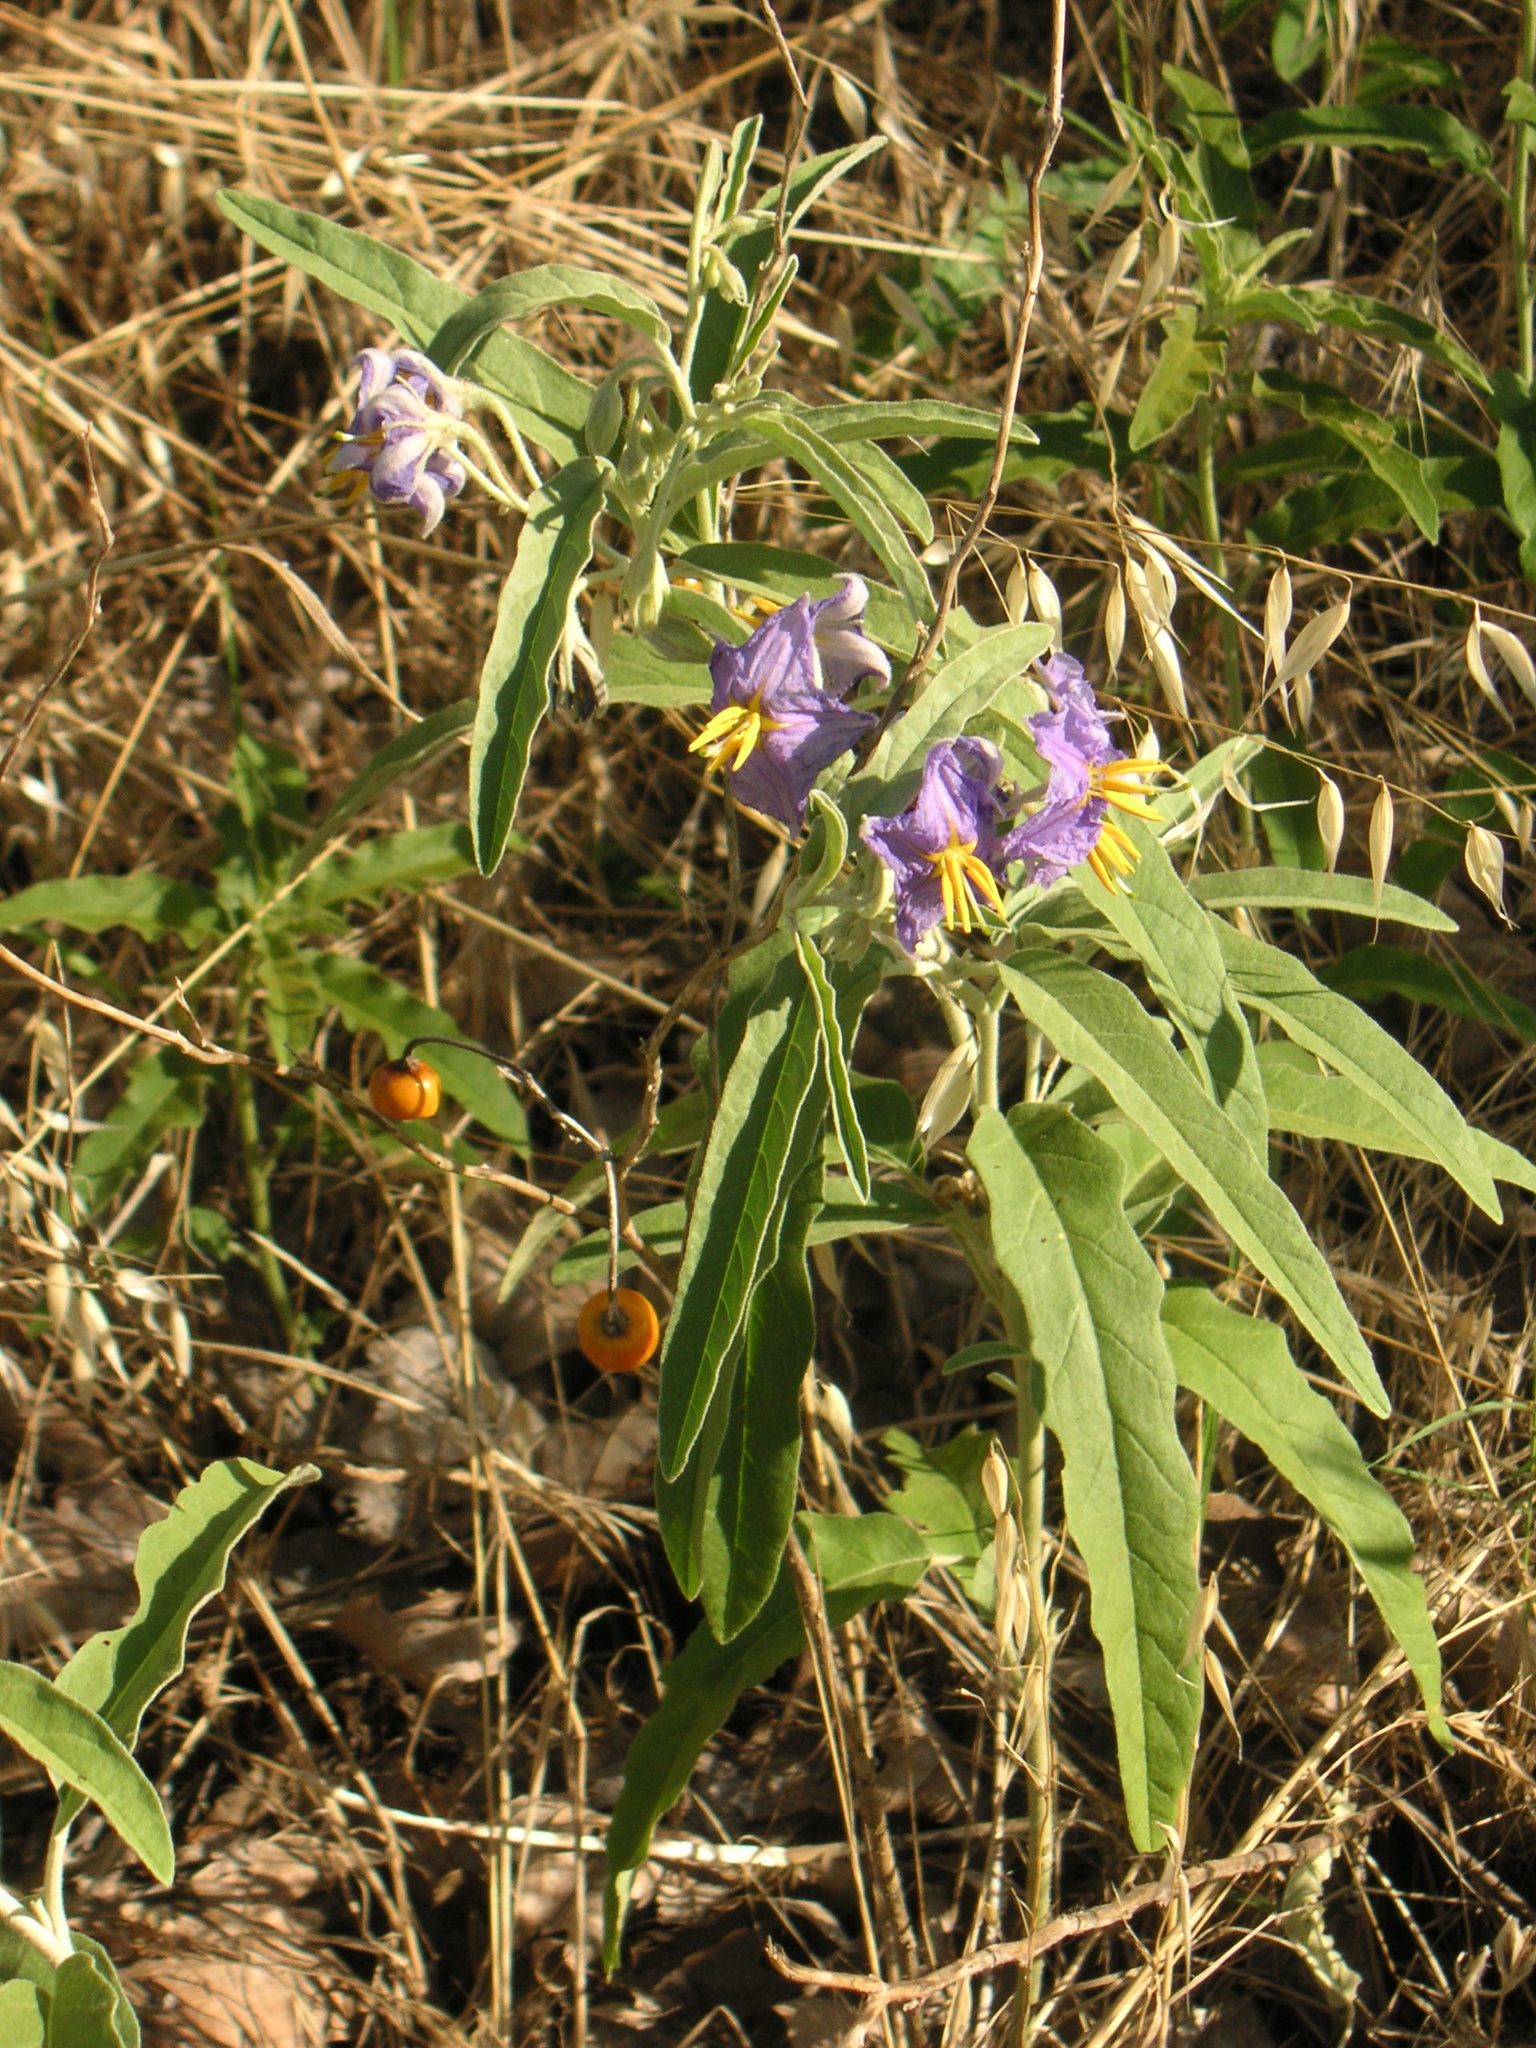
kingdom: Plantae
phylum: Tracheophyta
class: Magnoliopsida
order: Solanales
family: Solanaceae
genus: Solanum
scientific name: Solanum elaeagnifolium
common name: Silverleaf nightshade
